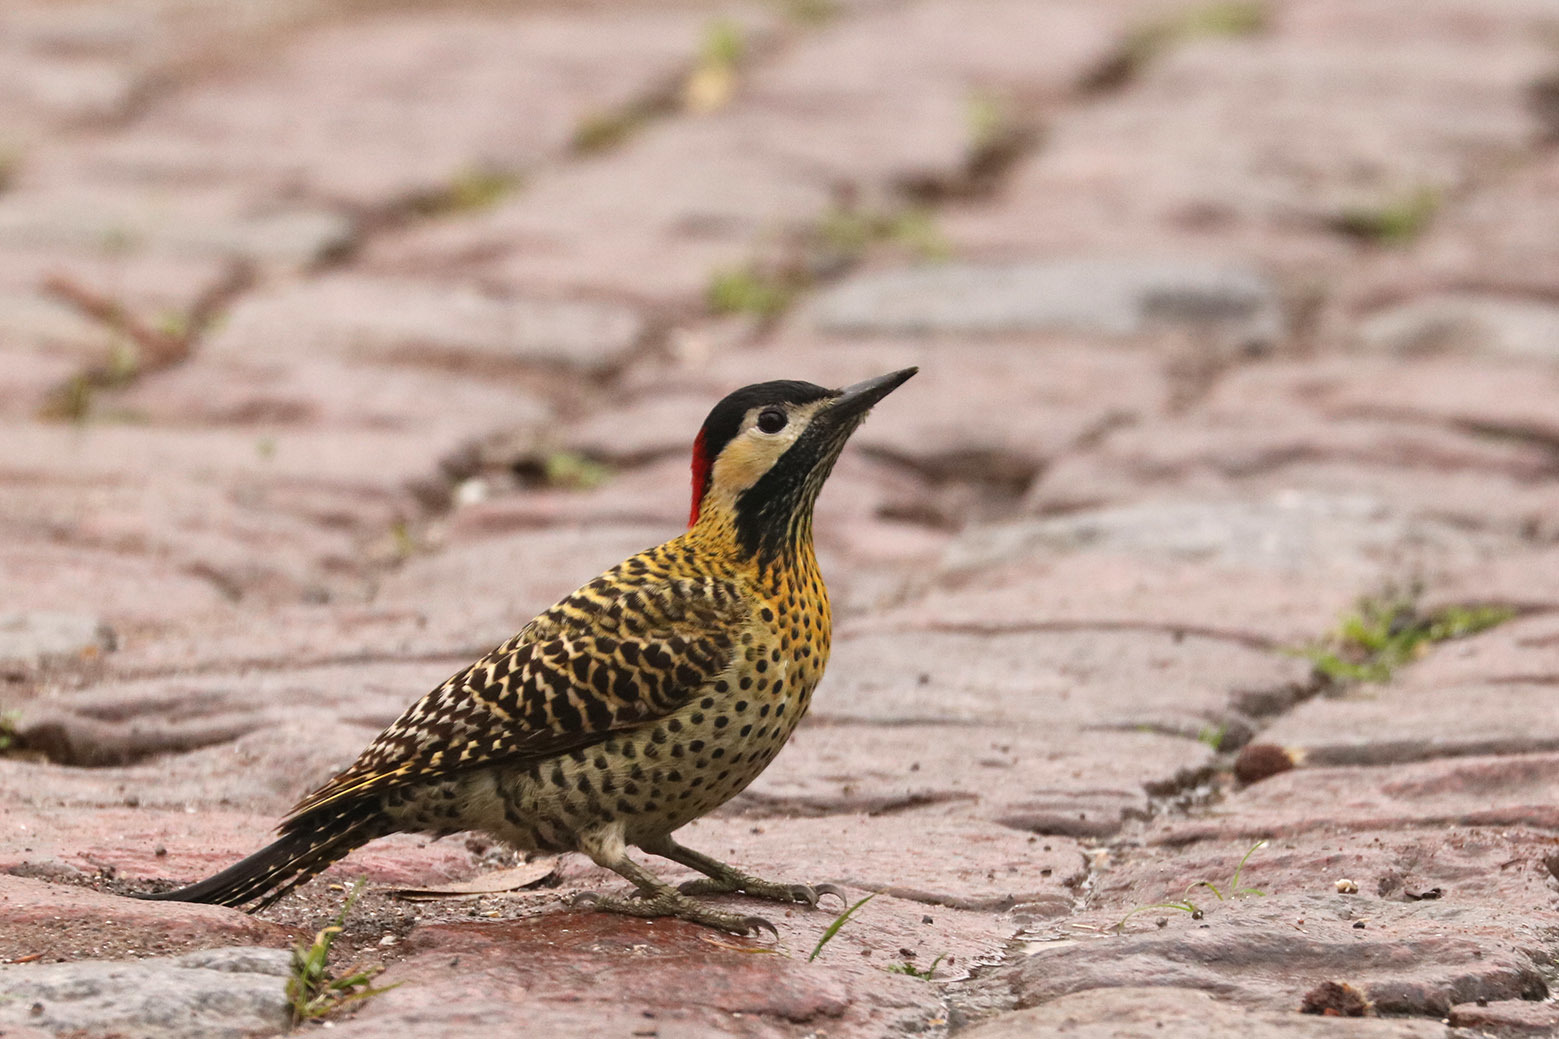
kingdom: Animalia
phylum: Chordata
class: Aves
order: Piciformes
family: Picidae
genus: Colaptes
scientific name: Colaptes melanochloros
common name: Green-barred woodpecker
